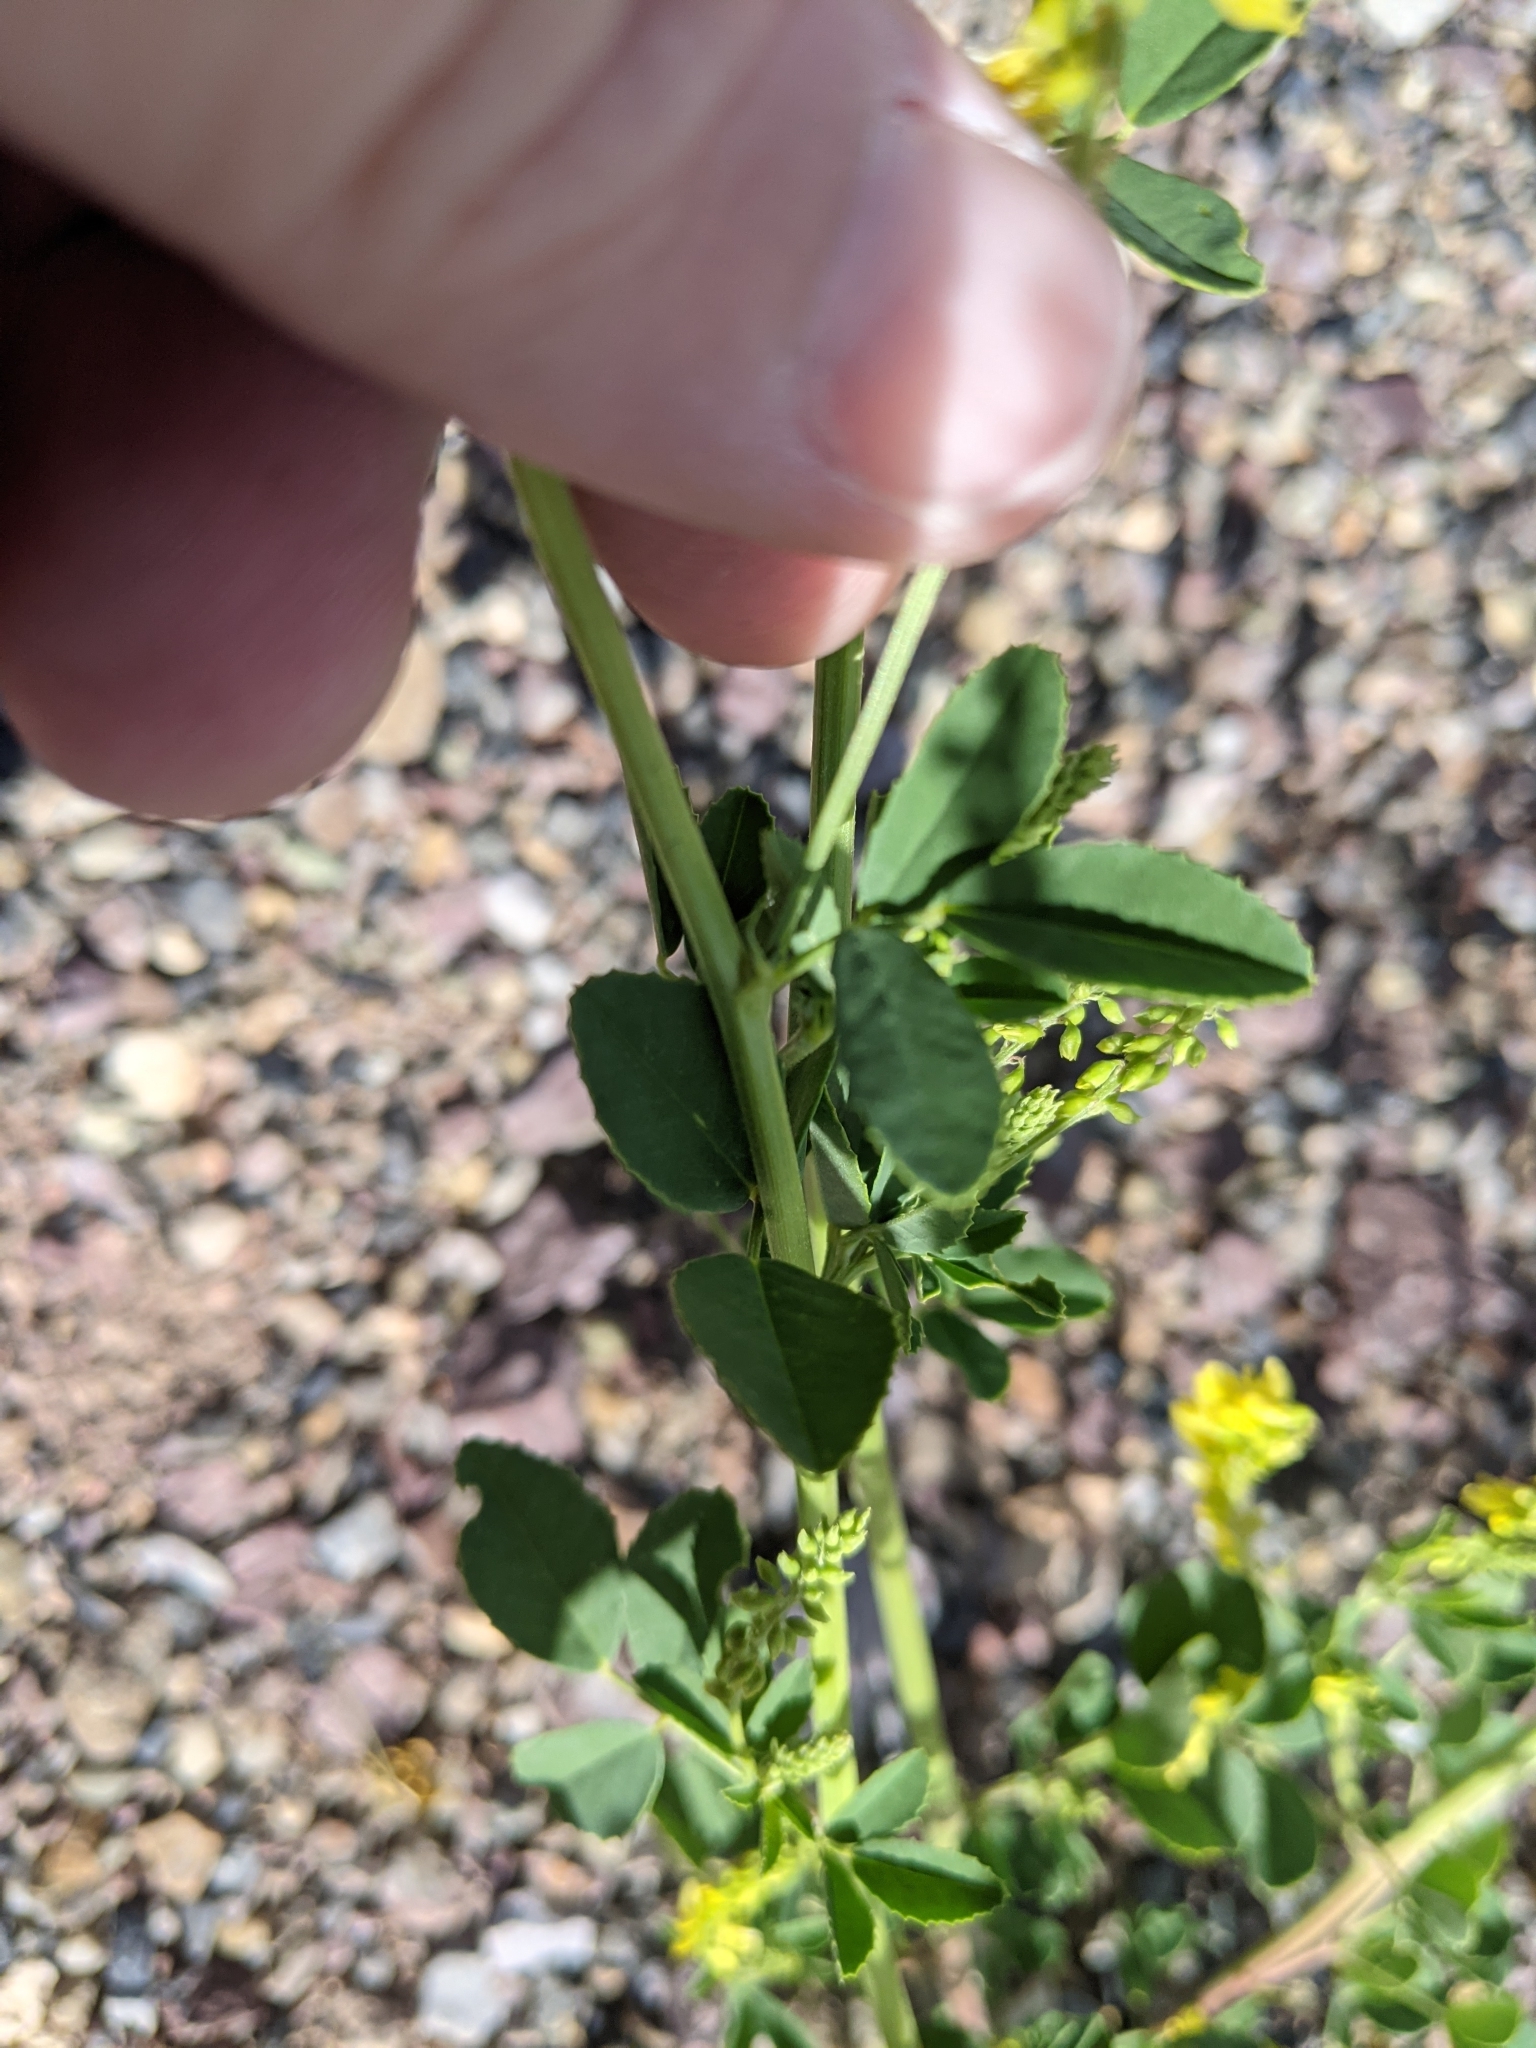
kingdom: Plantae
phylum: Tracheophyta
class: Magnoliopsida
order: Fabales
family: Fabaceae
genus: Melilotus
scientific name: Melilotus officinalis
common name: Sweetclover
